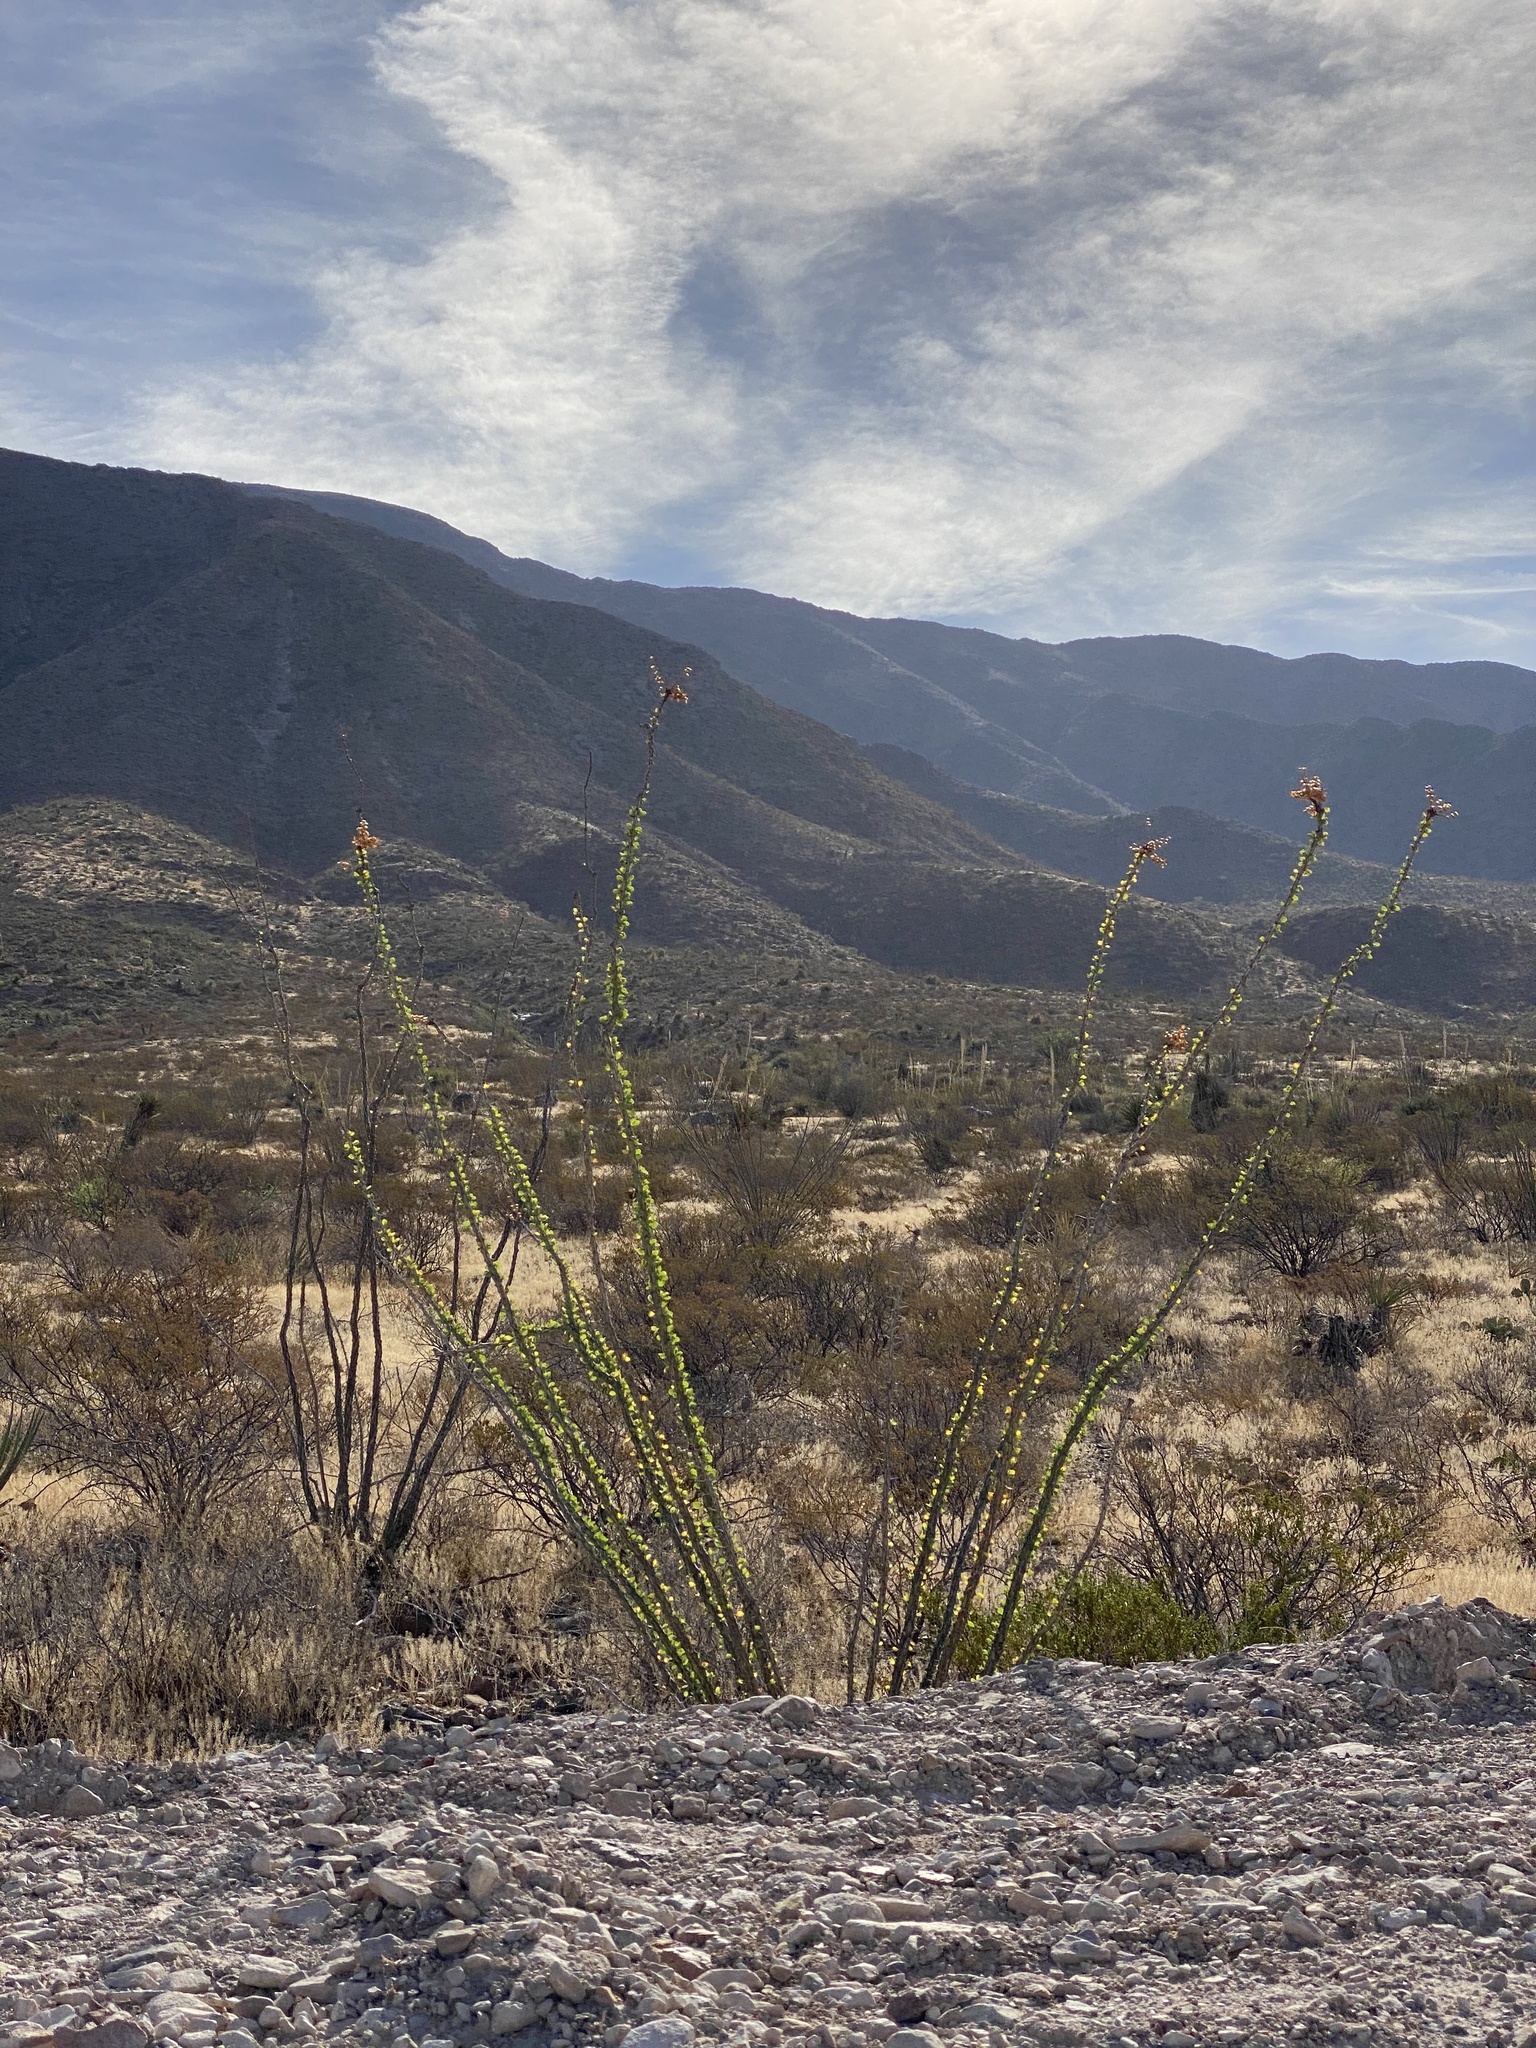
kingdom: Plantae
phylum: Tracheophyta
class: Magnoliopsida
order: Ericales
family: Fouquieriaceae
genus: Fouquieria
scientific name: Fouquieria splendens
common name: Vine-cactus
